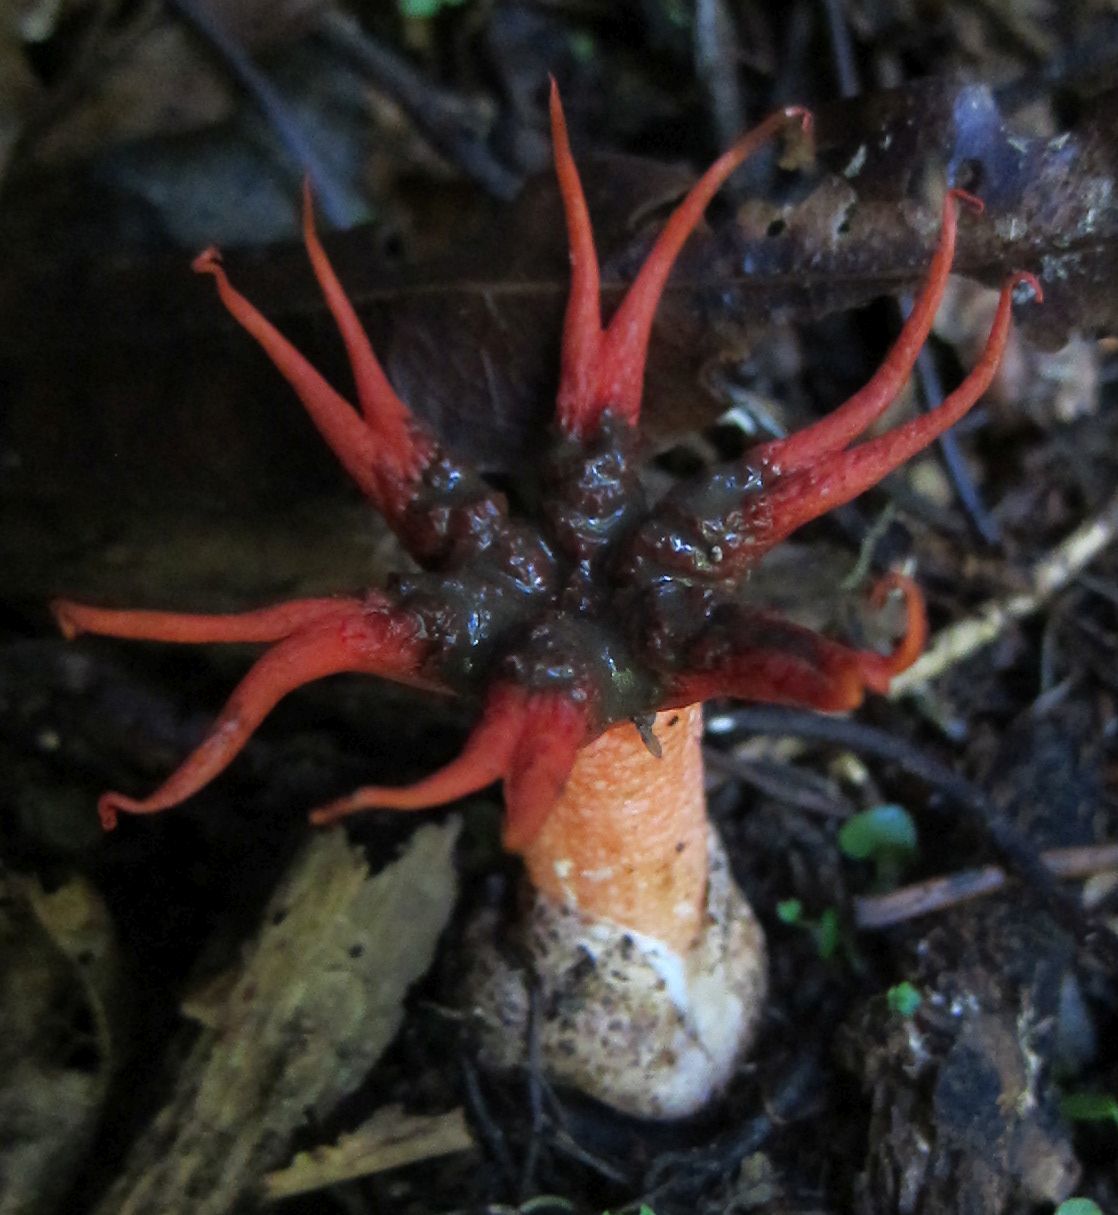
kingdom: Fungi
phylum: Basidiomycota
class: Agaricomycetes
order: Phallales
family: Phallaceae
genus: Aseroe
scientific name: Aseroe rubra
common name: Starfish fungus
